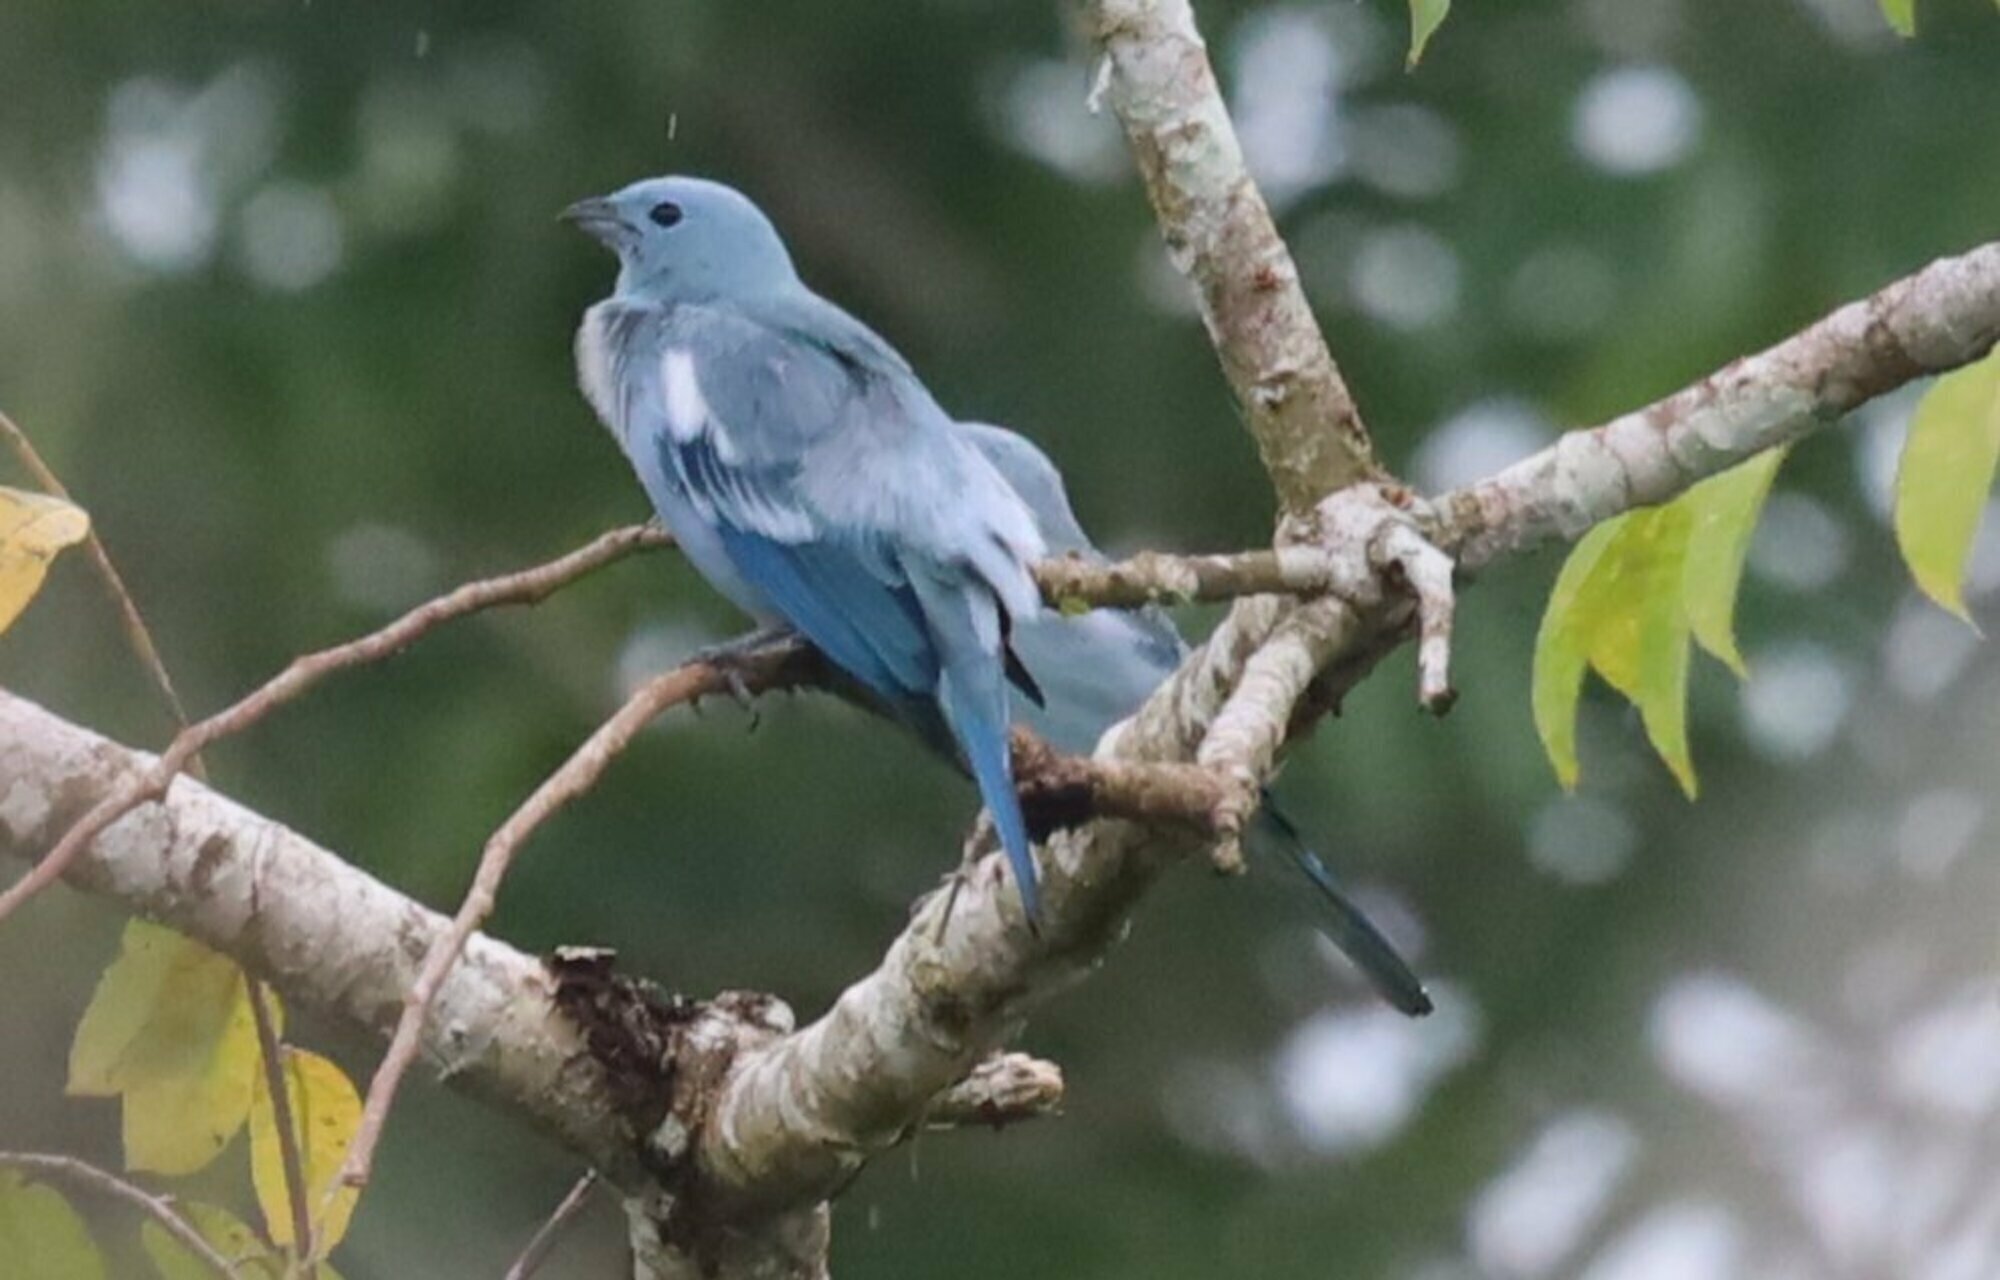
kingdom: Animalia
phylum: Chordata
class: Aves
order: Passeriformes
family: Thraupidae
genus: Thraupis
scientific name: Thraupis episcopus
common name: Blue-grey tanager
